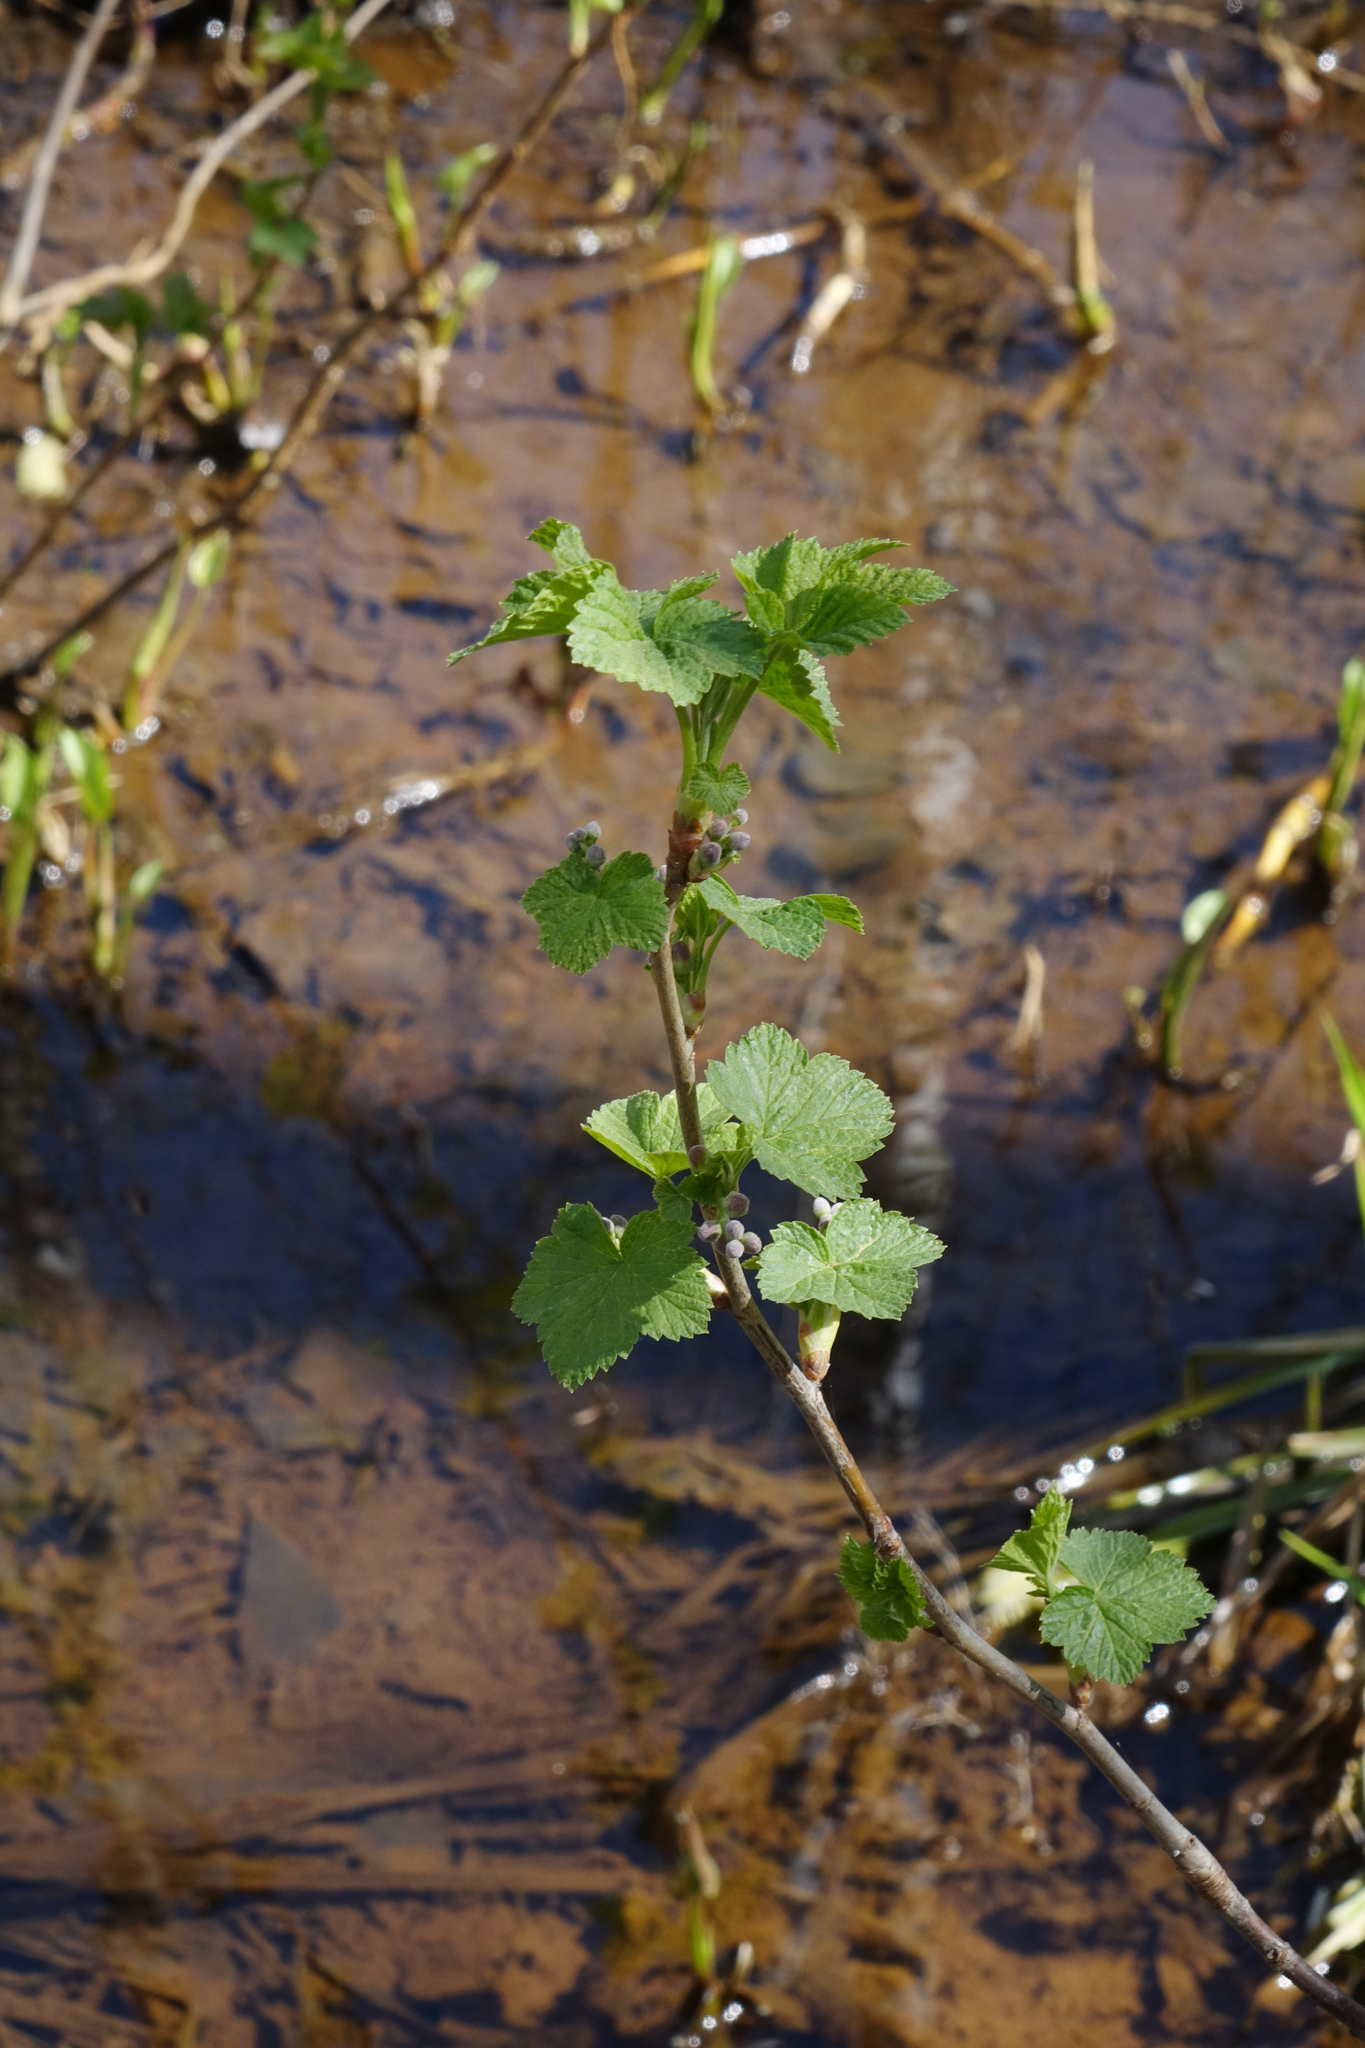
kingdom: Plantae
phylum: Tracheophyta
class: Magnoliopsida
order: Saxifragales
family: Grossulariaceae
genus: Ribes
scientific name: Ribes nigrum
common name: Black currant
